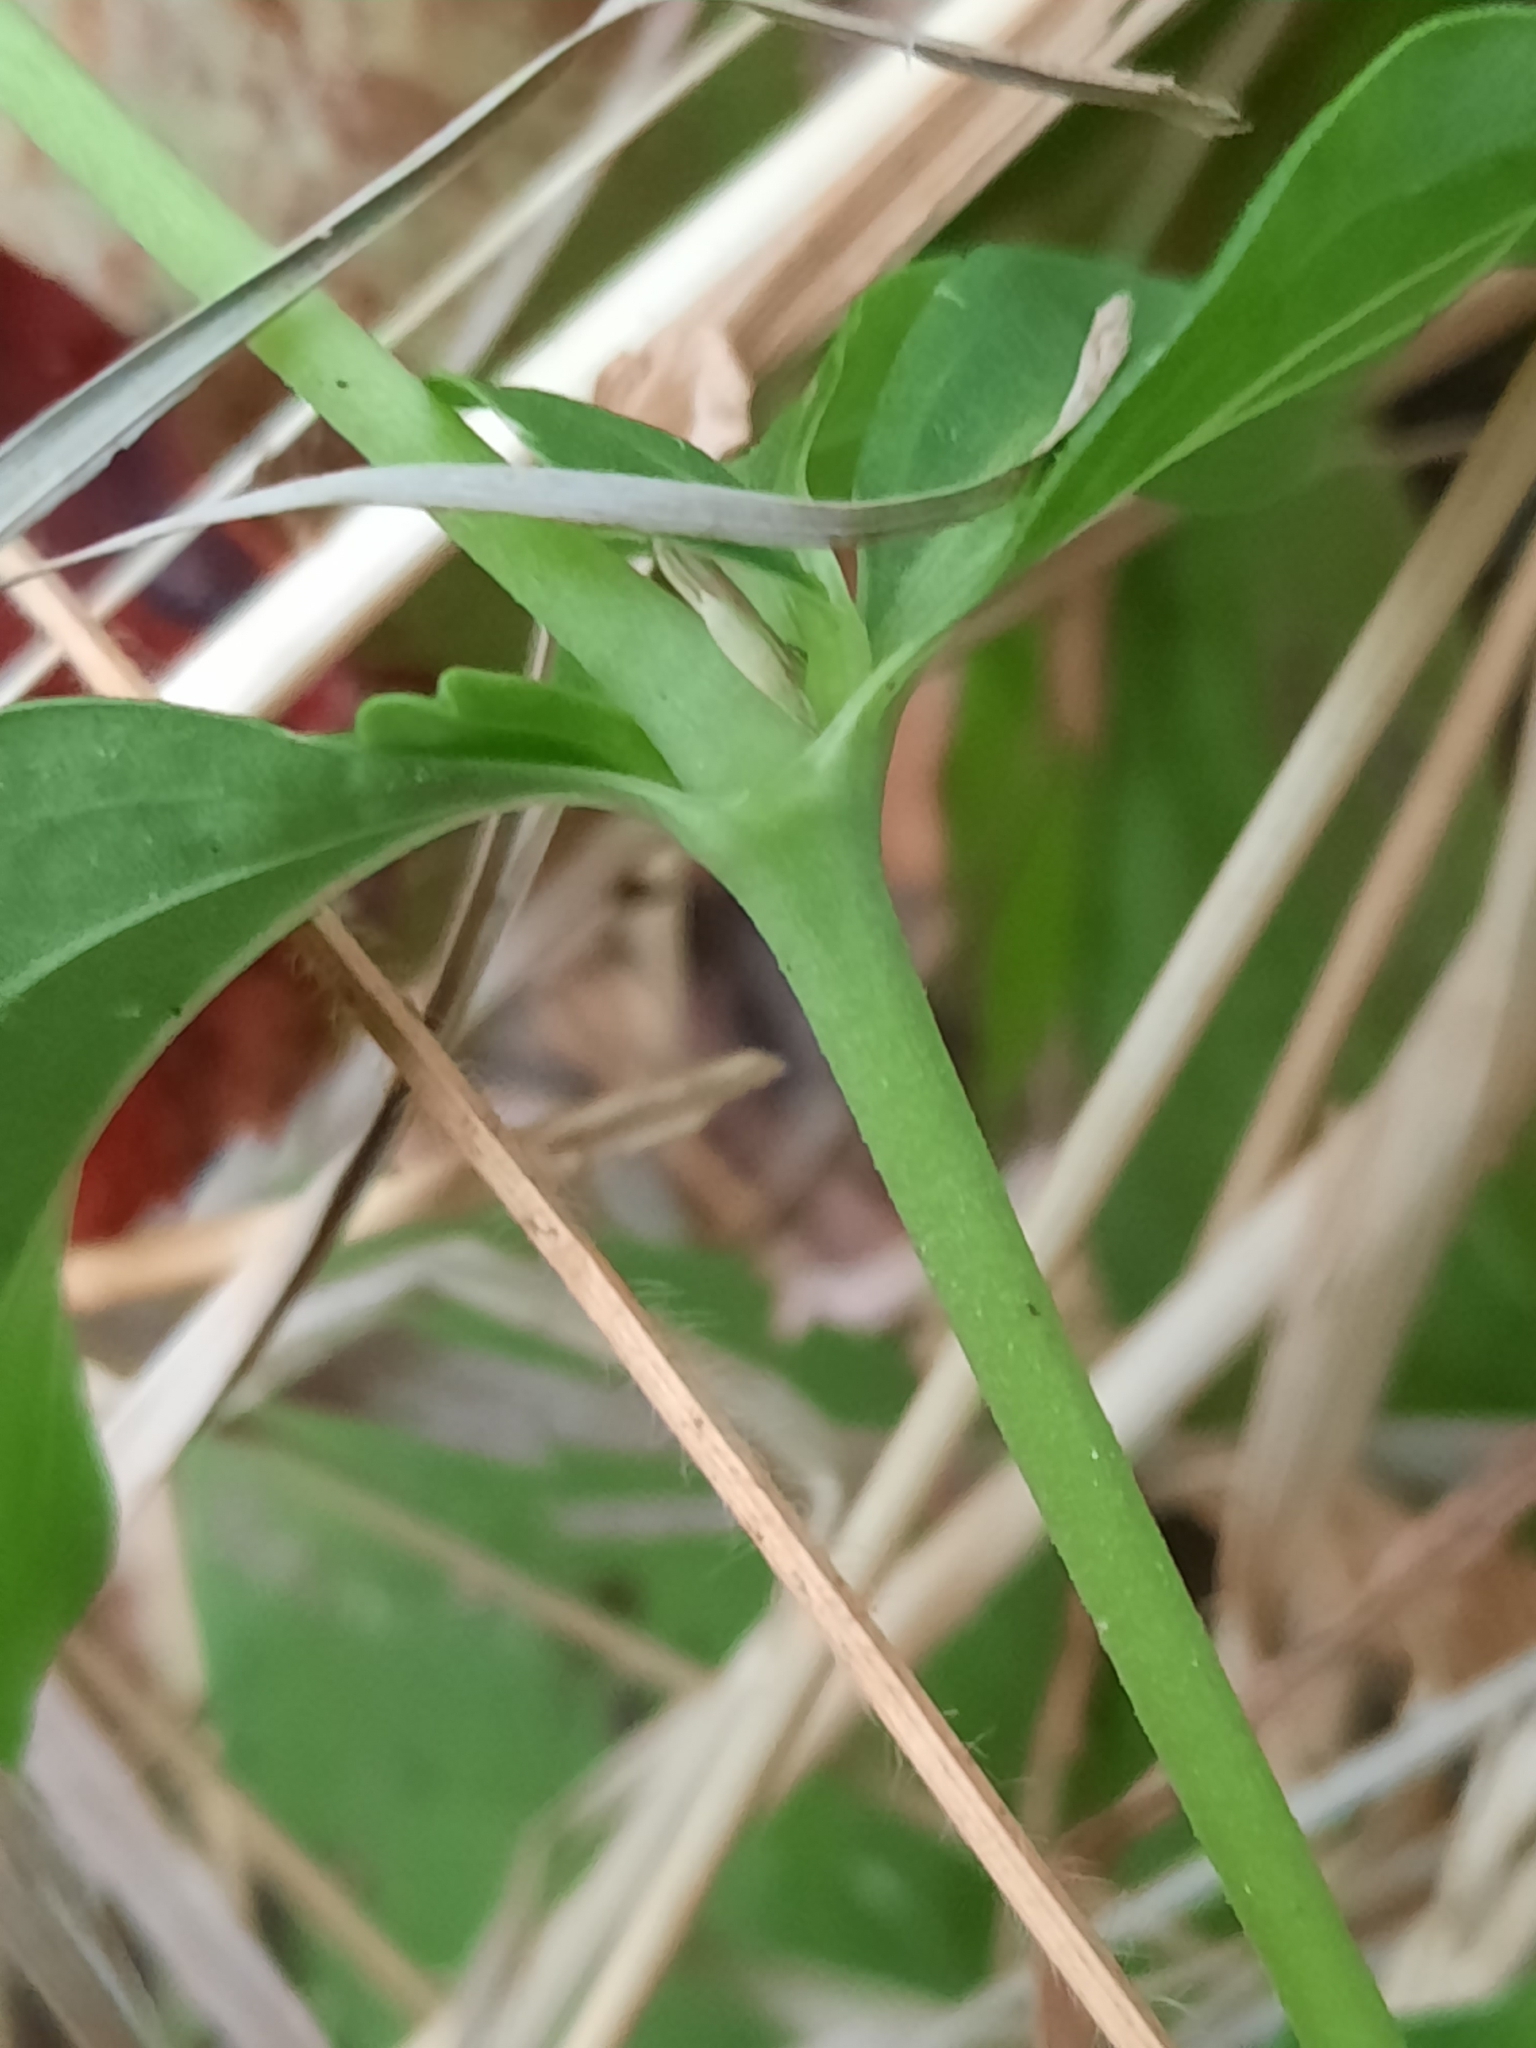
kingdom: Plantae
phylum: Tracheophyta
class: Magnoliopsida
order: Caryophyllales
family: Caryophyllaceae
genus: Saponaria
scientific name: Saponaria officinalis
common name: Soapwort
